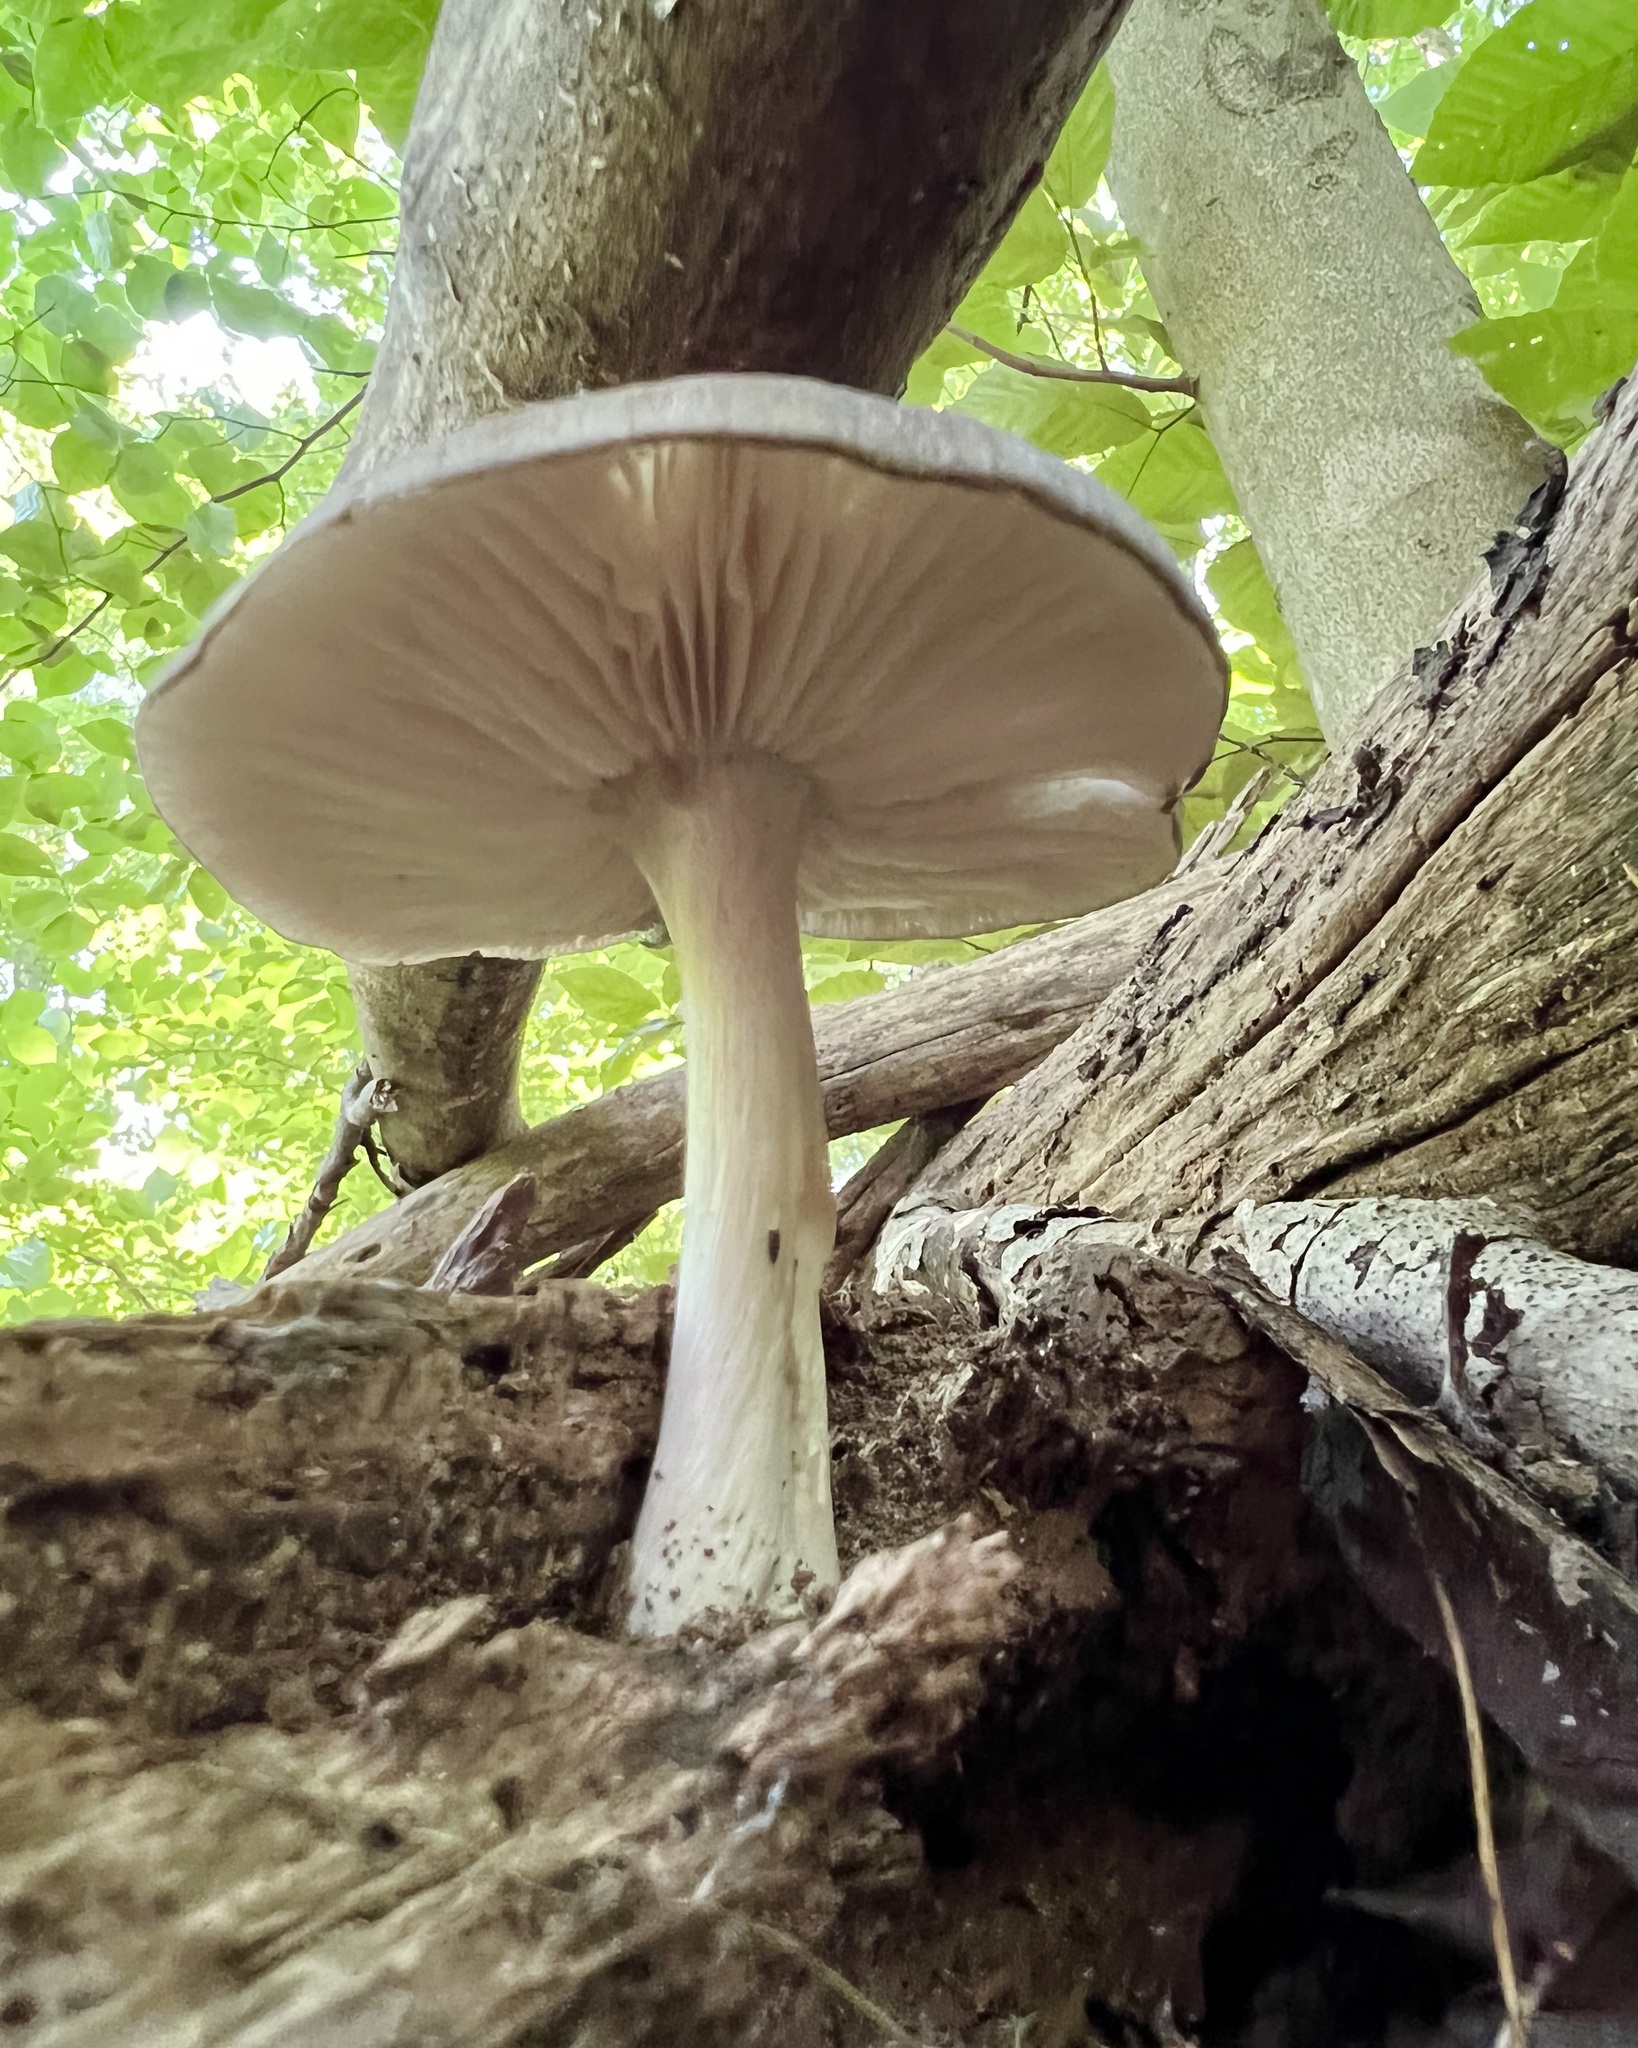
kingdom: Fungi
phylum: Basidiomycota
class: Agaricomycetes
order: Agaricales
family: Tricholomataceae
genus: Megacollybia
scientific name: Megacollybia rodmanii
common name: Eastern american platterful mushroom
